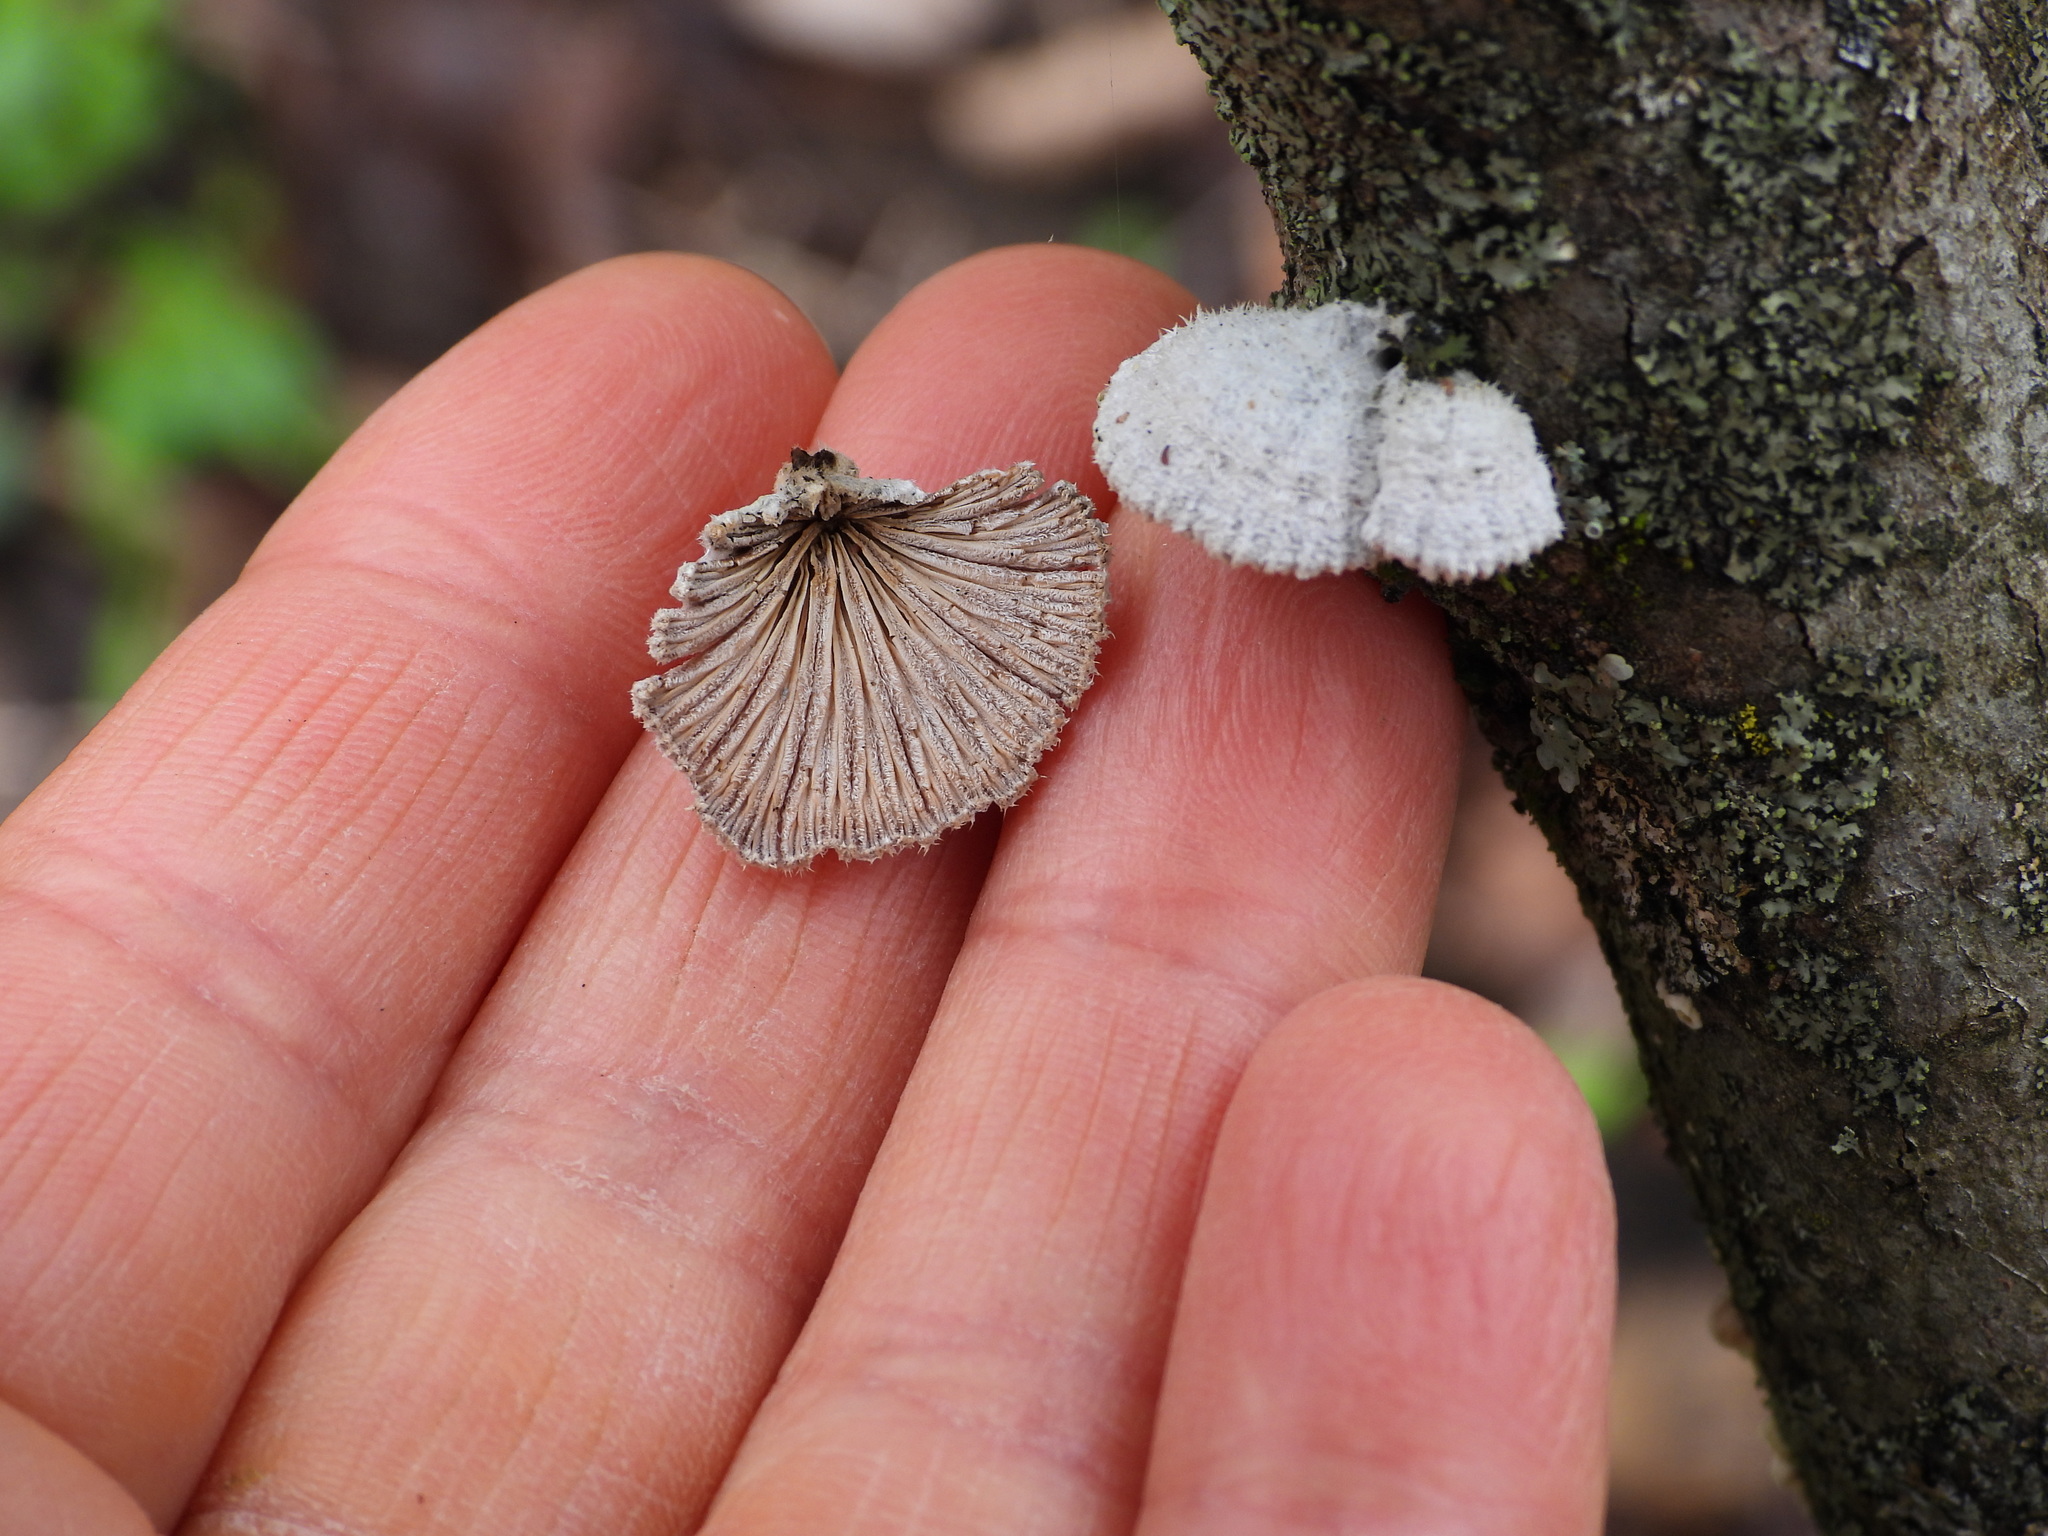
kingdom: Fungi
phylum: Basidiomycota
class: Agaricomycetes
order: Agaricales
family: Schizophyllaceae
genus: Schizophyllum
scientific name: Schizophyllum commune
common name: Common porecrust
